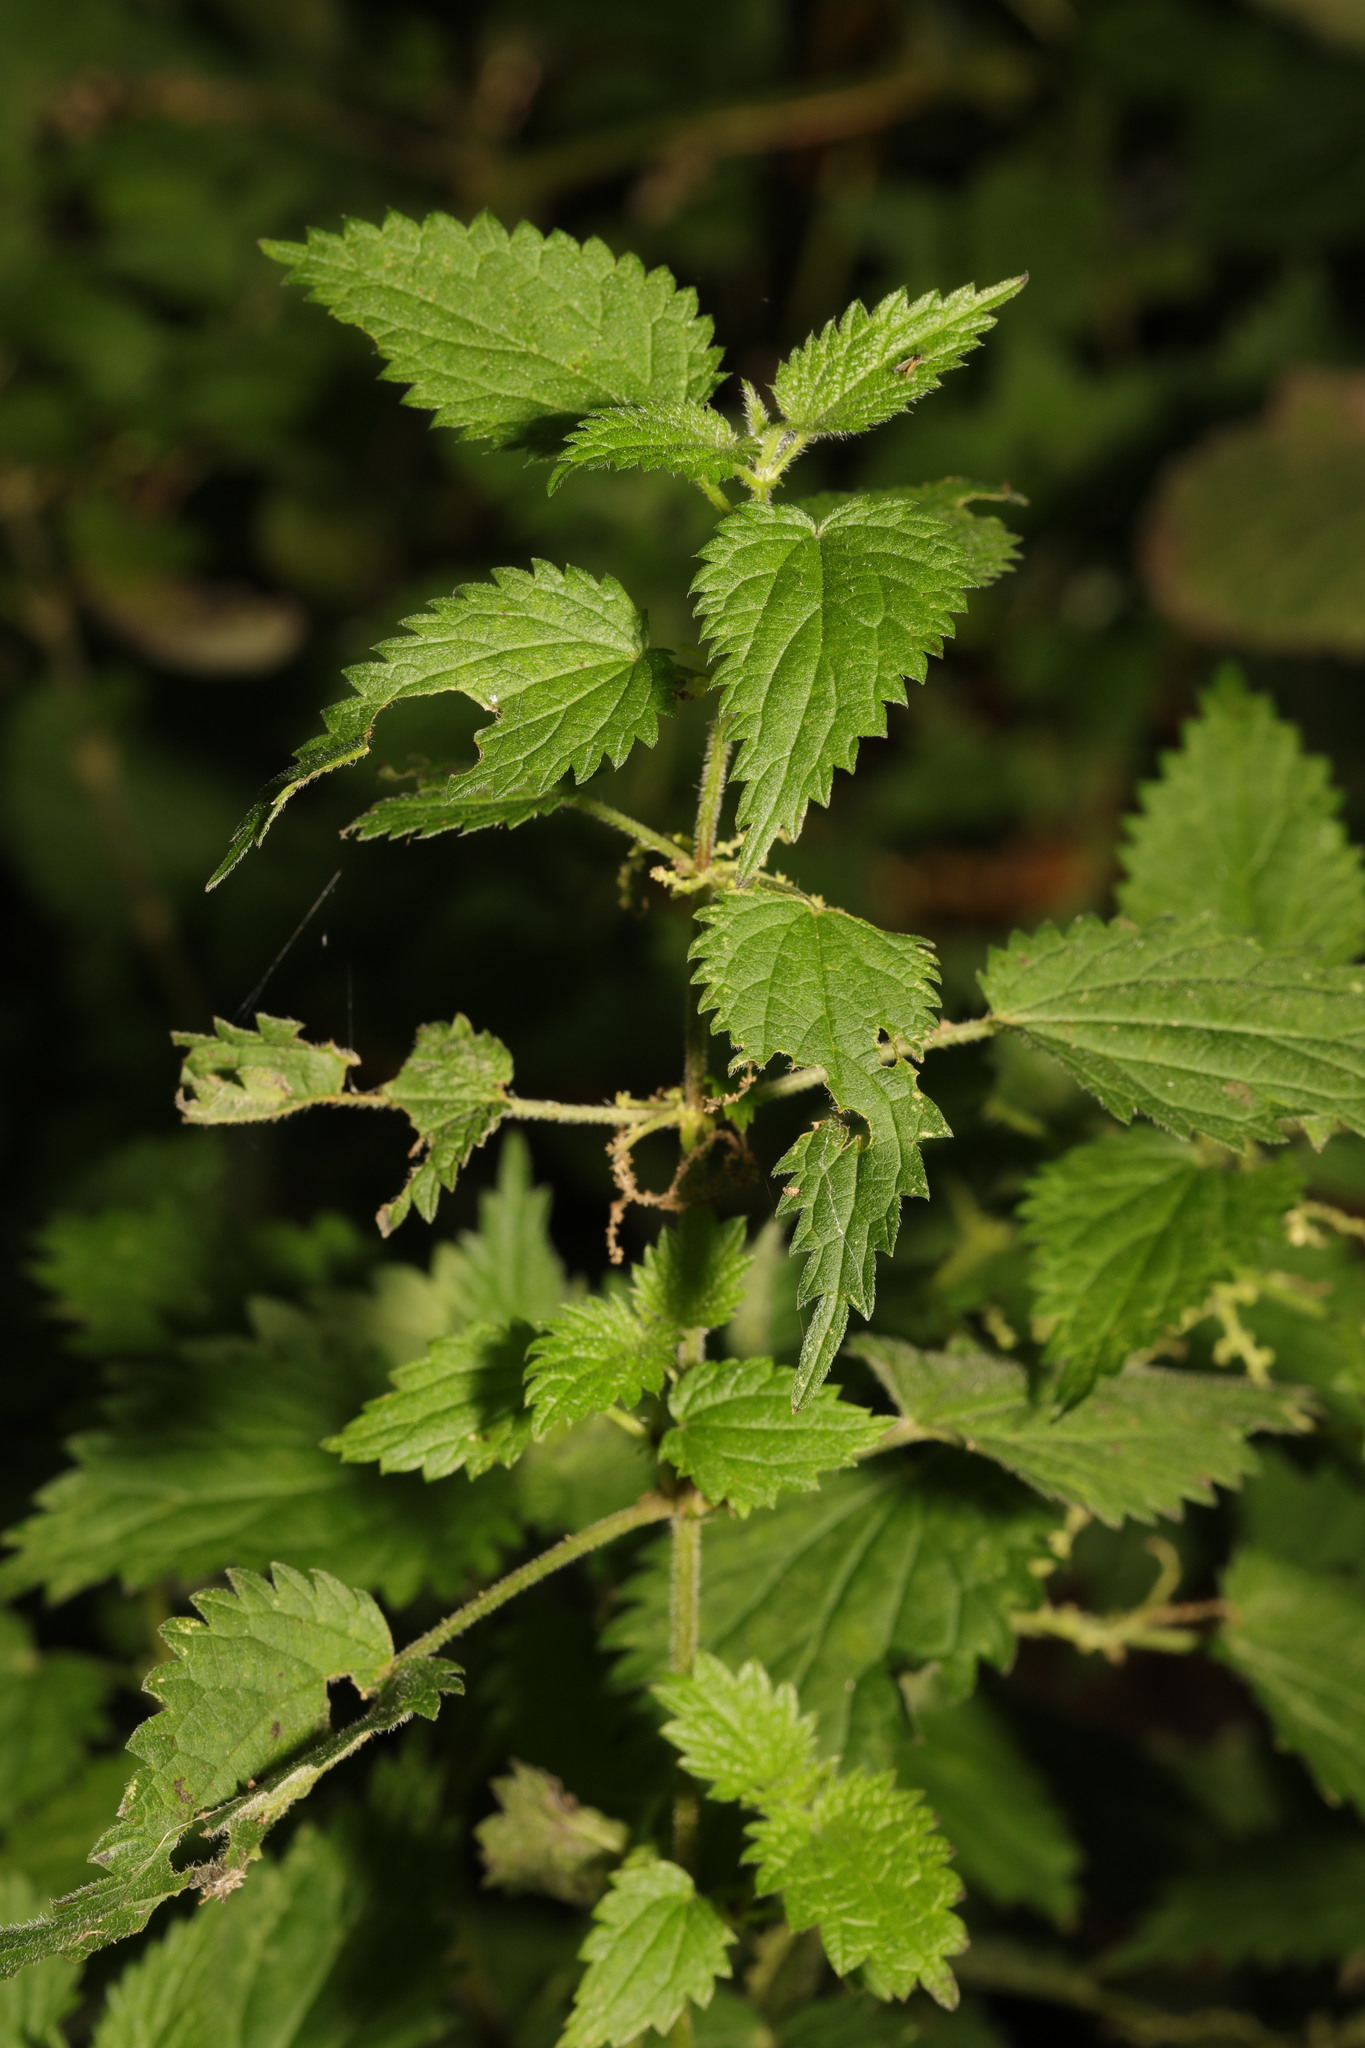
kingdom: Plantae
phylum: Tracheophyta
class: Magnoliopsida
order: Rosales
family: Urticaceae
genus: Urtica
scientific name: Urtica dioica
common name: Common nettle
